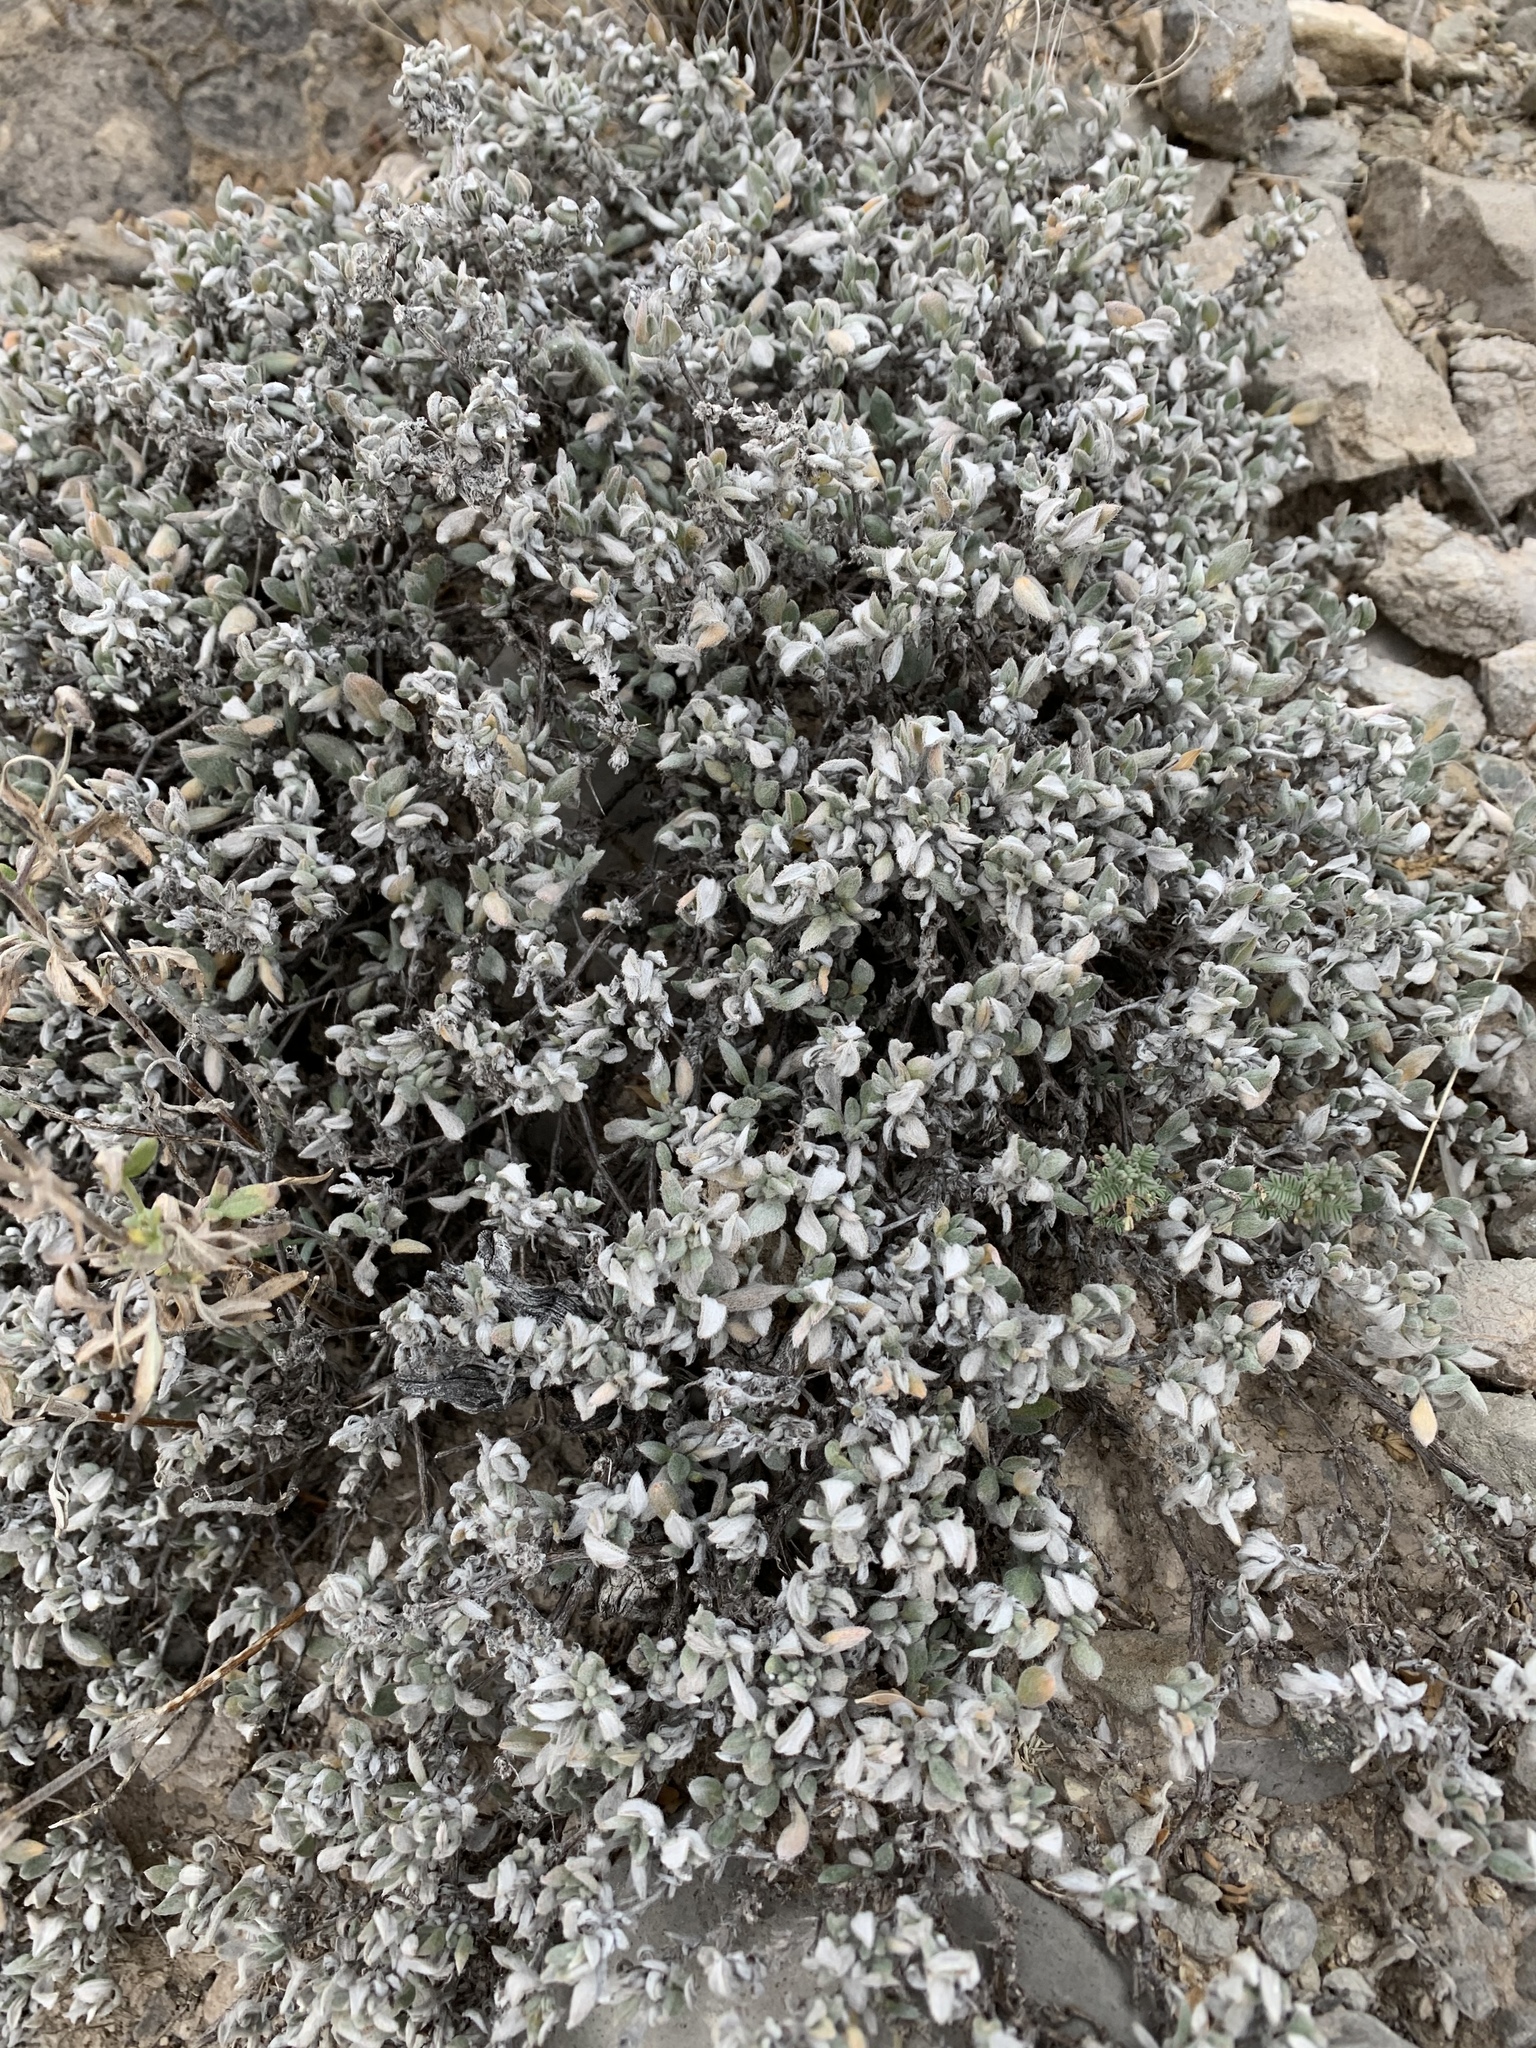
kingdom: Plantae
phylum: Tracheophyta
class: Magnoliopsida
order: Boraginales
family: Ehretiaceae
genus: Tiquilia
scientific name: Tiquilia canescens
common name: Hairy tiquilia
